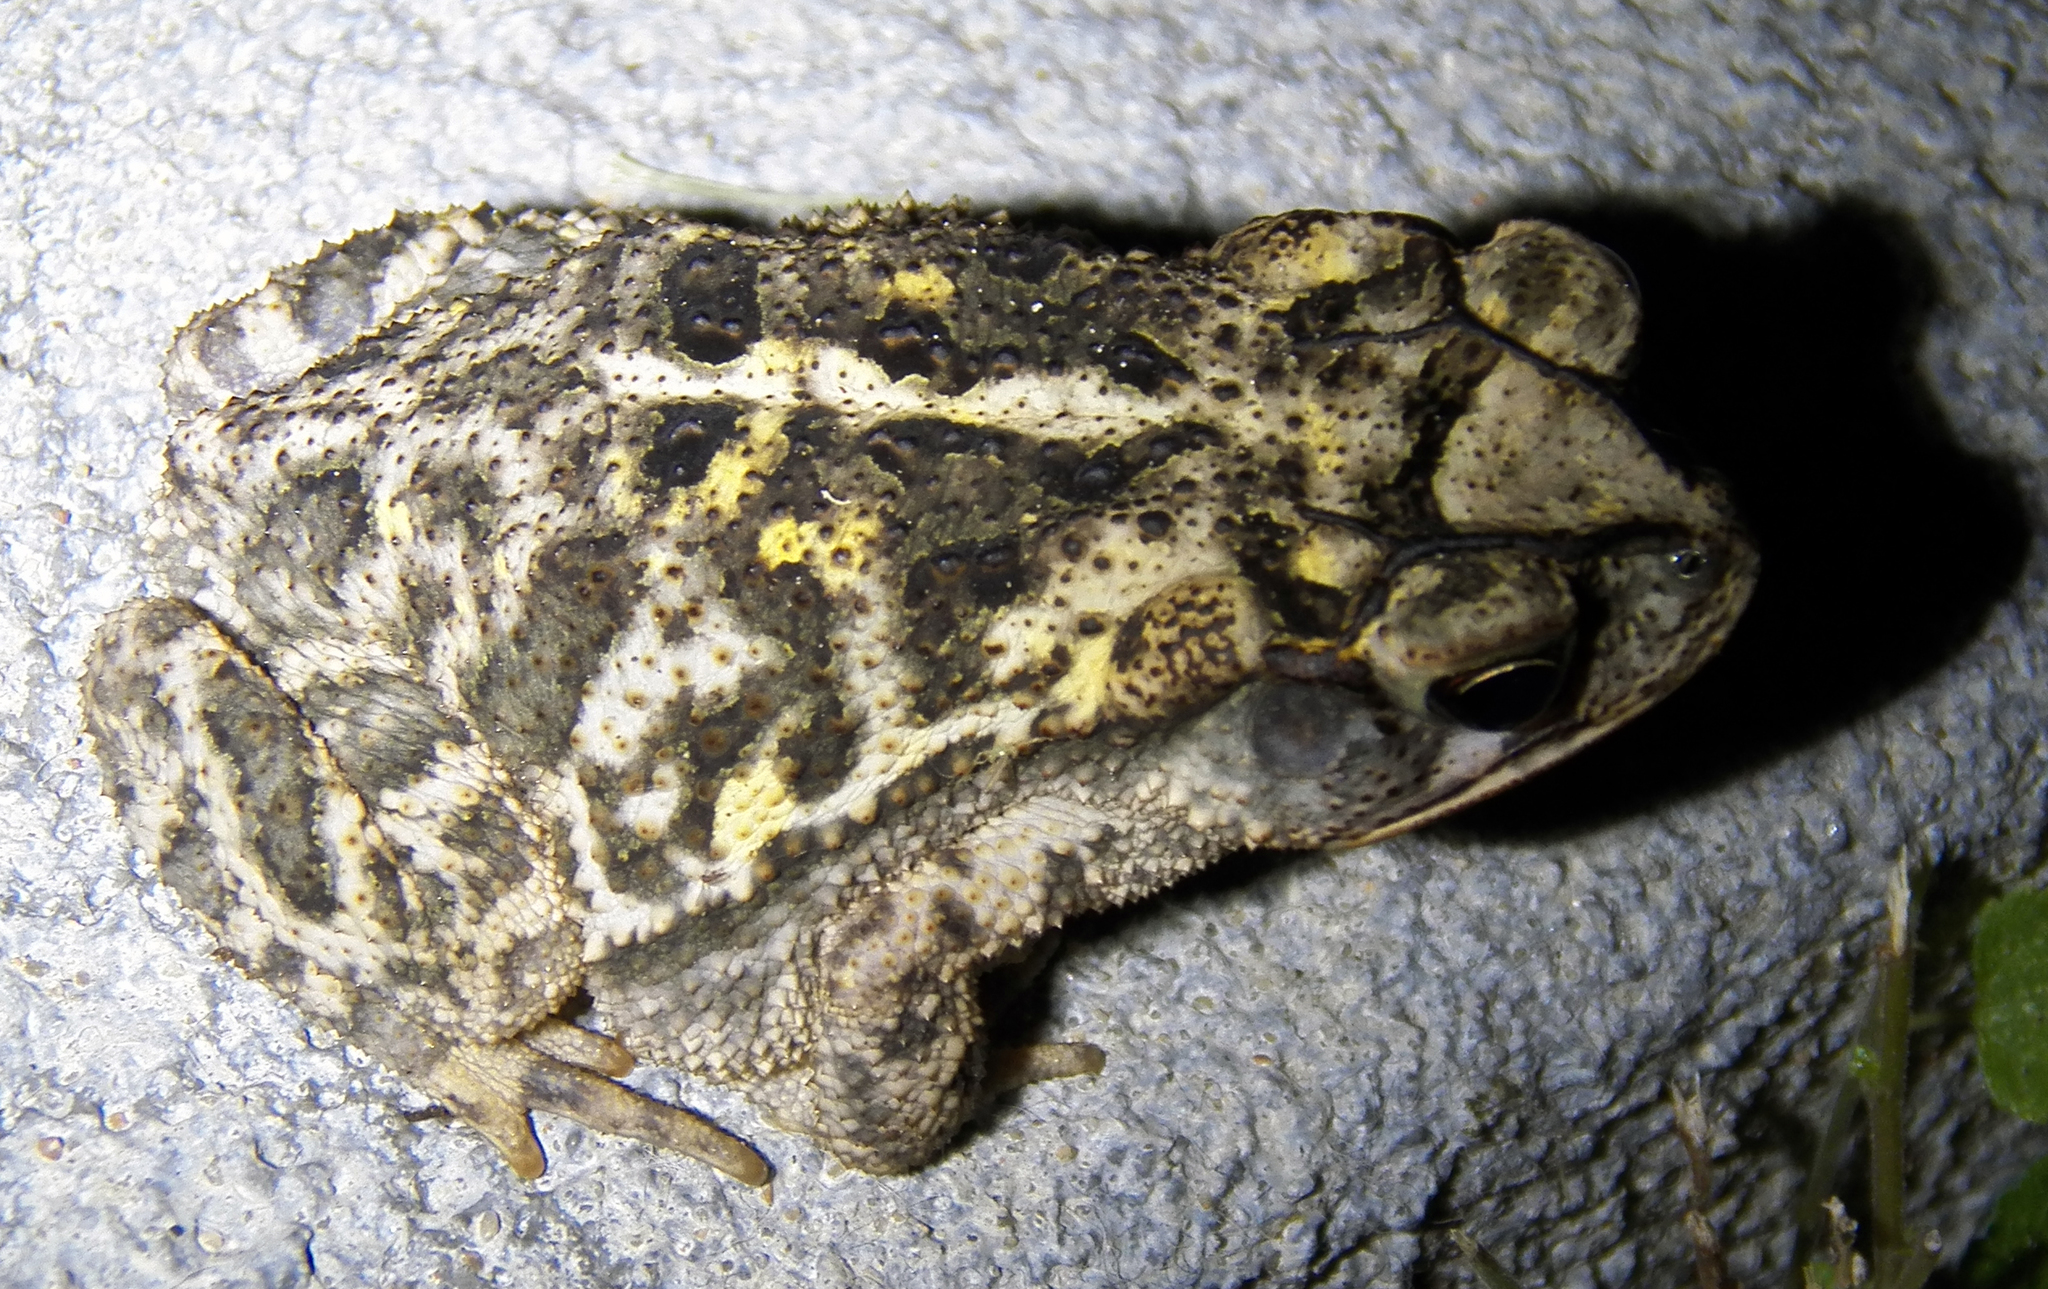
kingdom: Animalia
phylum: Chordata
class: Amphibia
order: Anura
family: Bufonidae
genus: Incilius
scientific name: Incilius nebulifer
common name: Gulf coast toad
